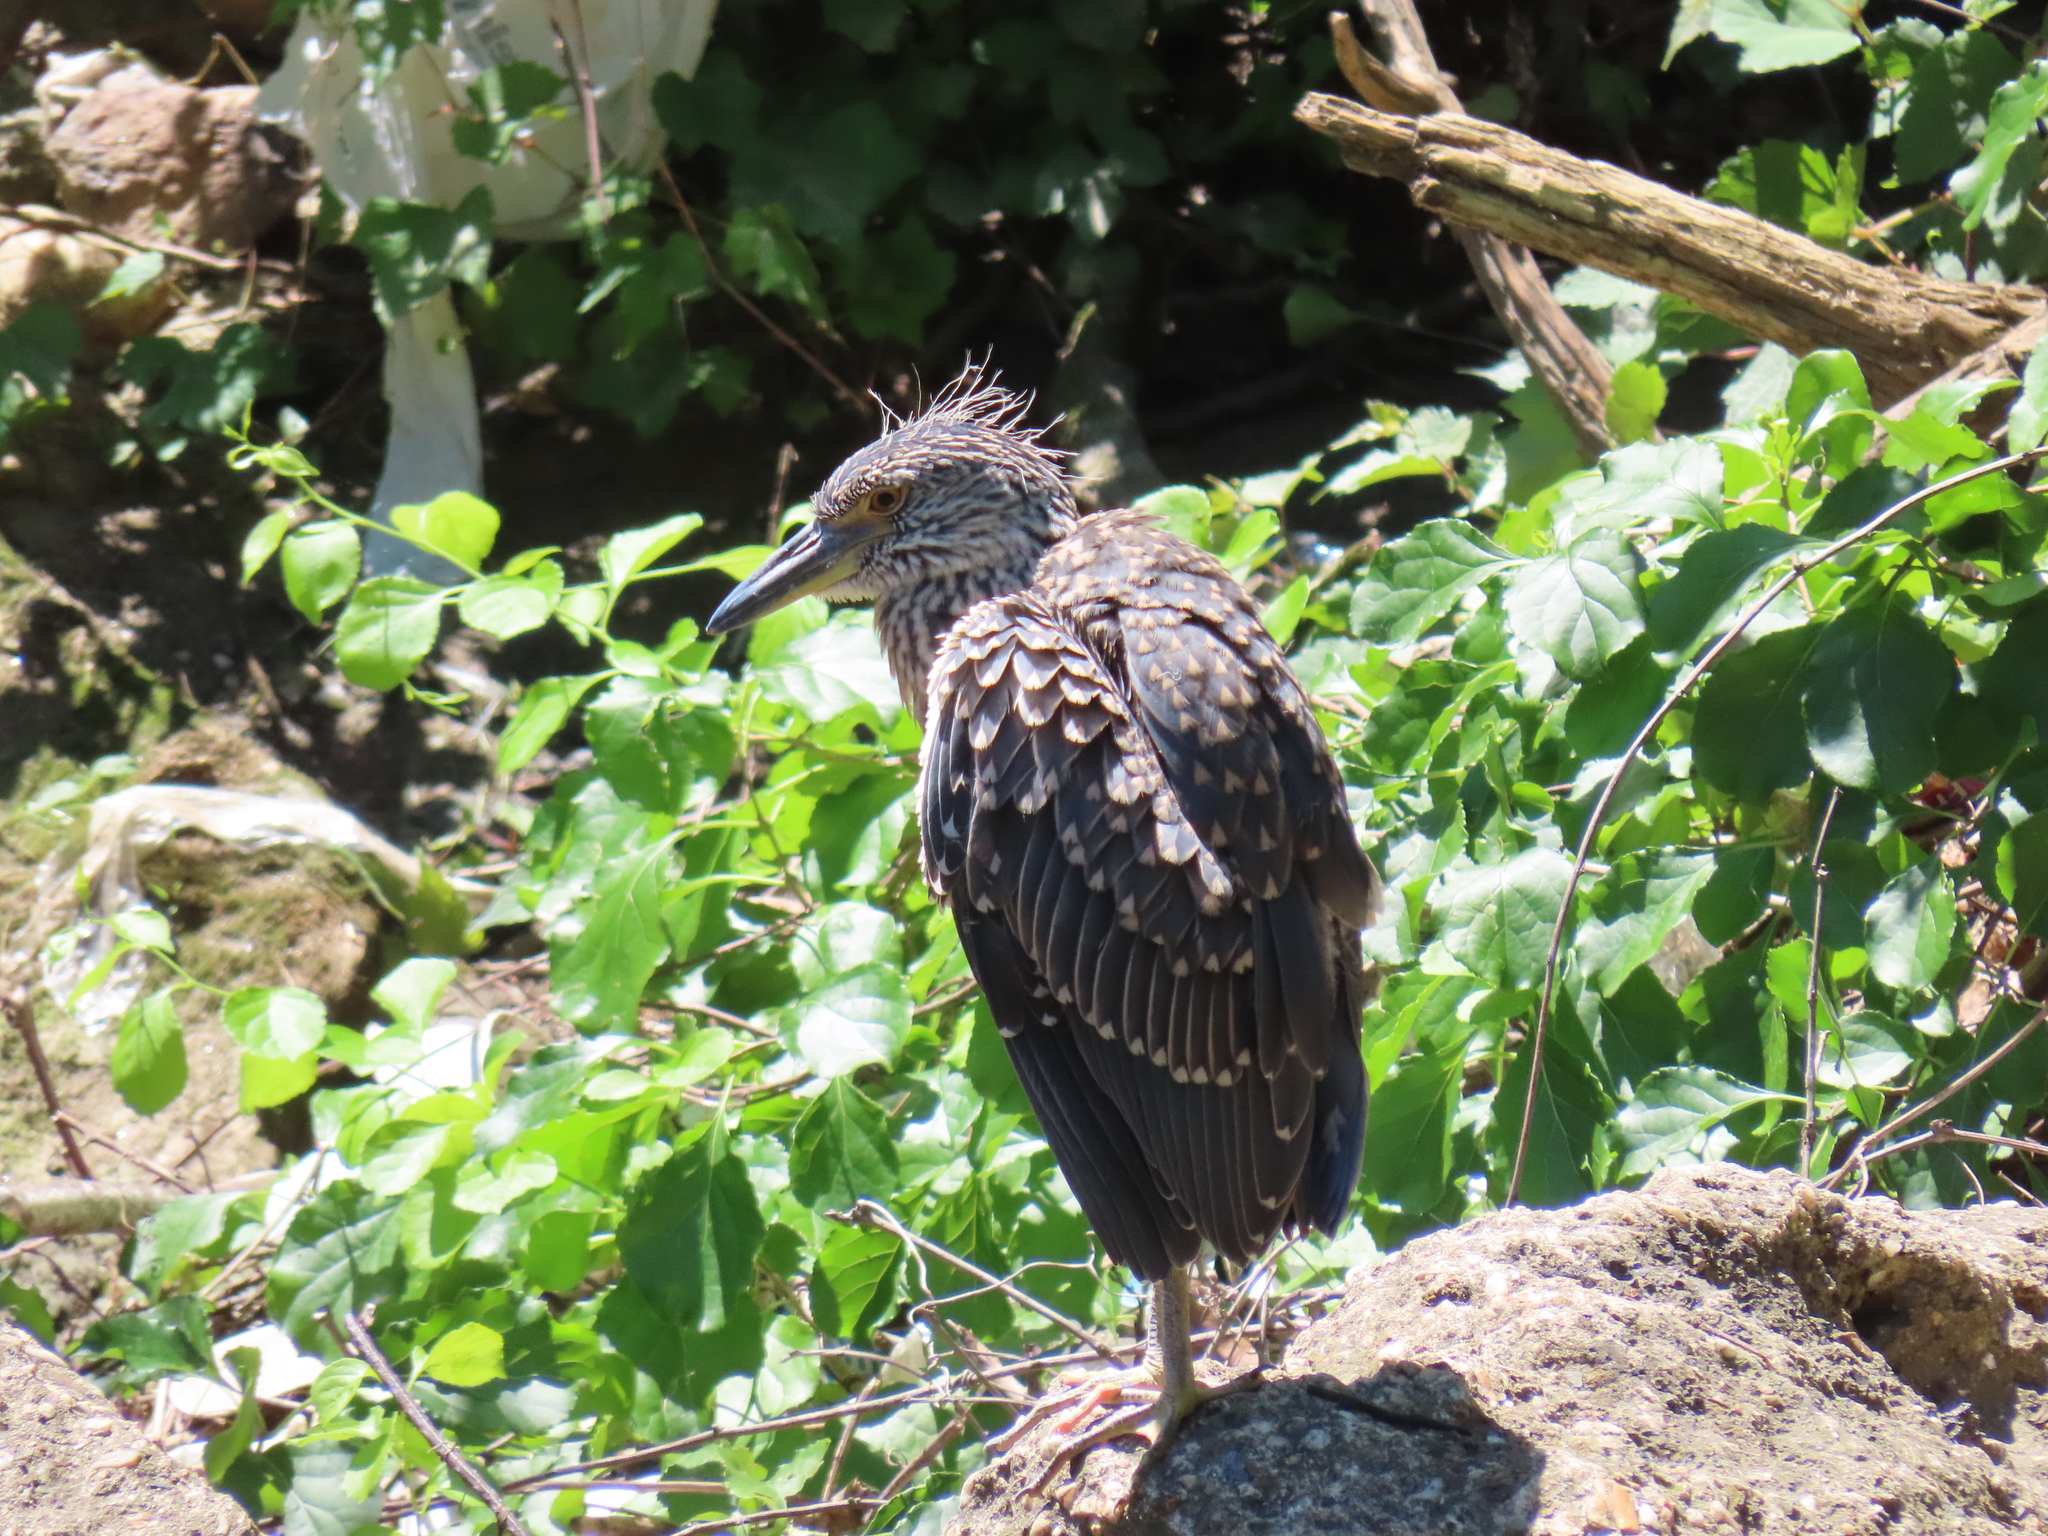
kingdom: Animalia
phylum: Chordata
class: Aves
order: Pelecaniformes
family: Ardeidae
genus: Nyctanassa
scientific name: Nyctanassa violacea
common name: Yellow-crowned night heron
